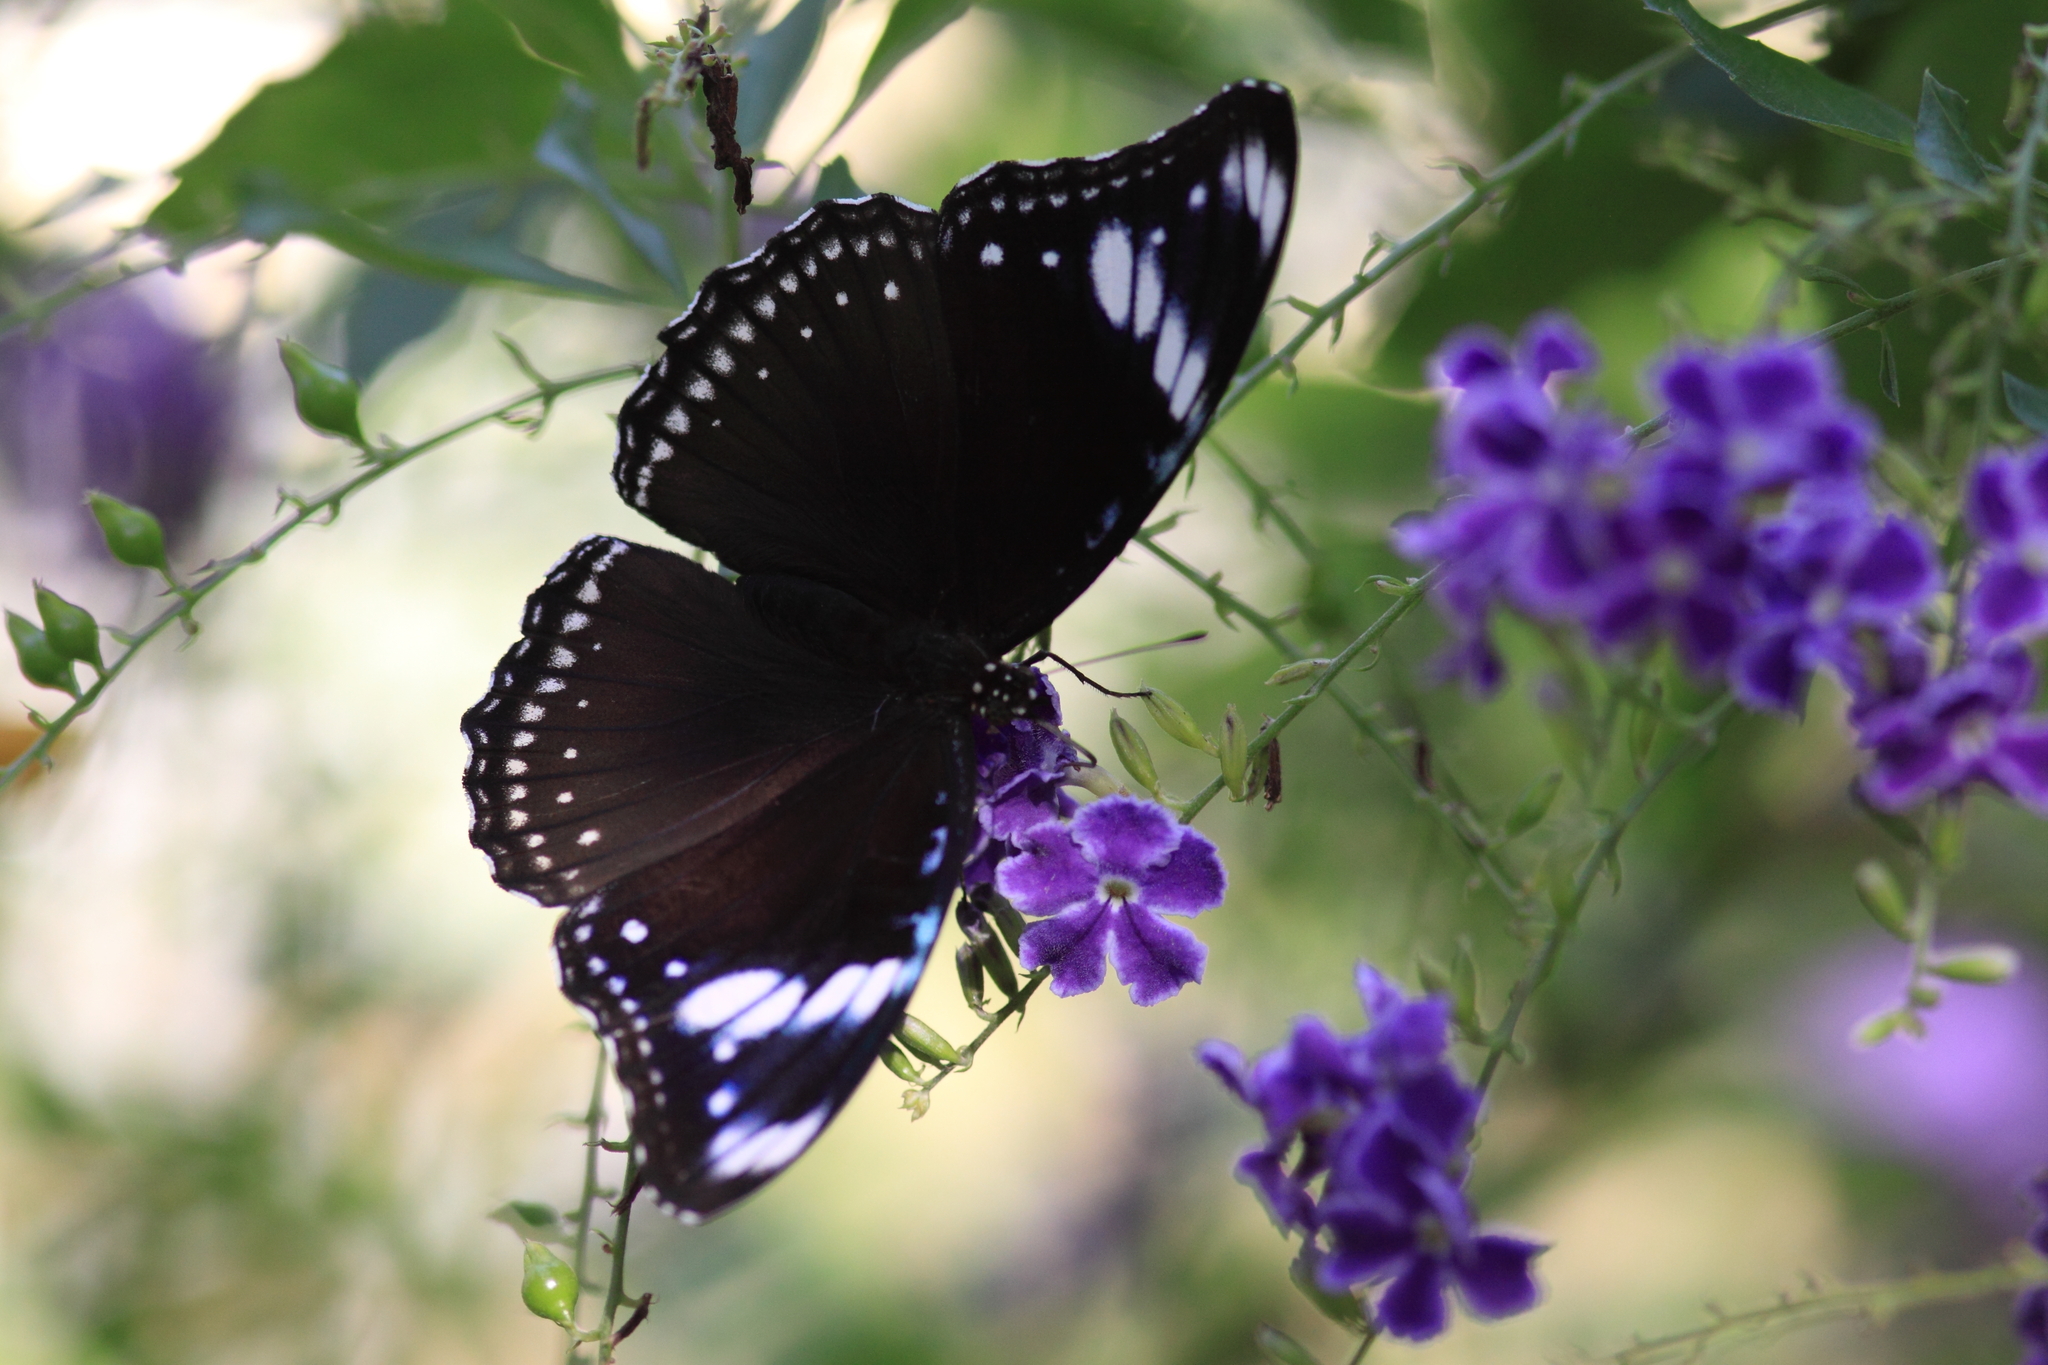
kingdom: Animalia
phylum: Arthropoda
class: Insecta
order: Lepidoptera
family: Nymphalidae
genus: Hypolimnas
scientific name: Hypolimnas bolina
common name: Great eggfly
